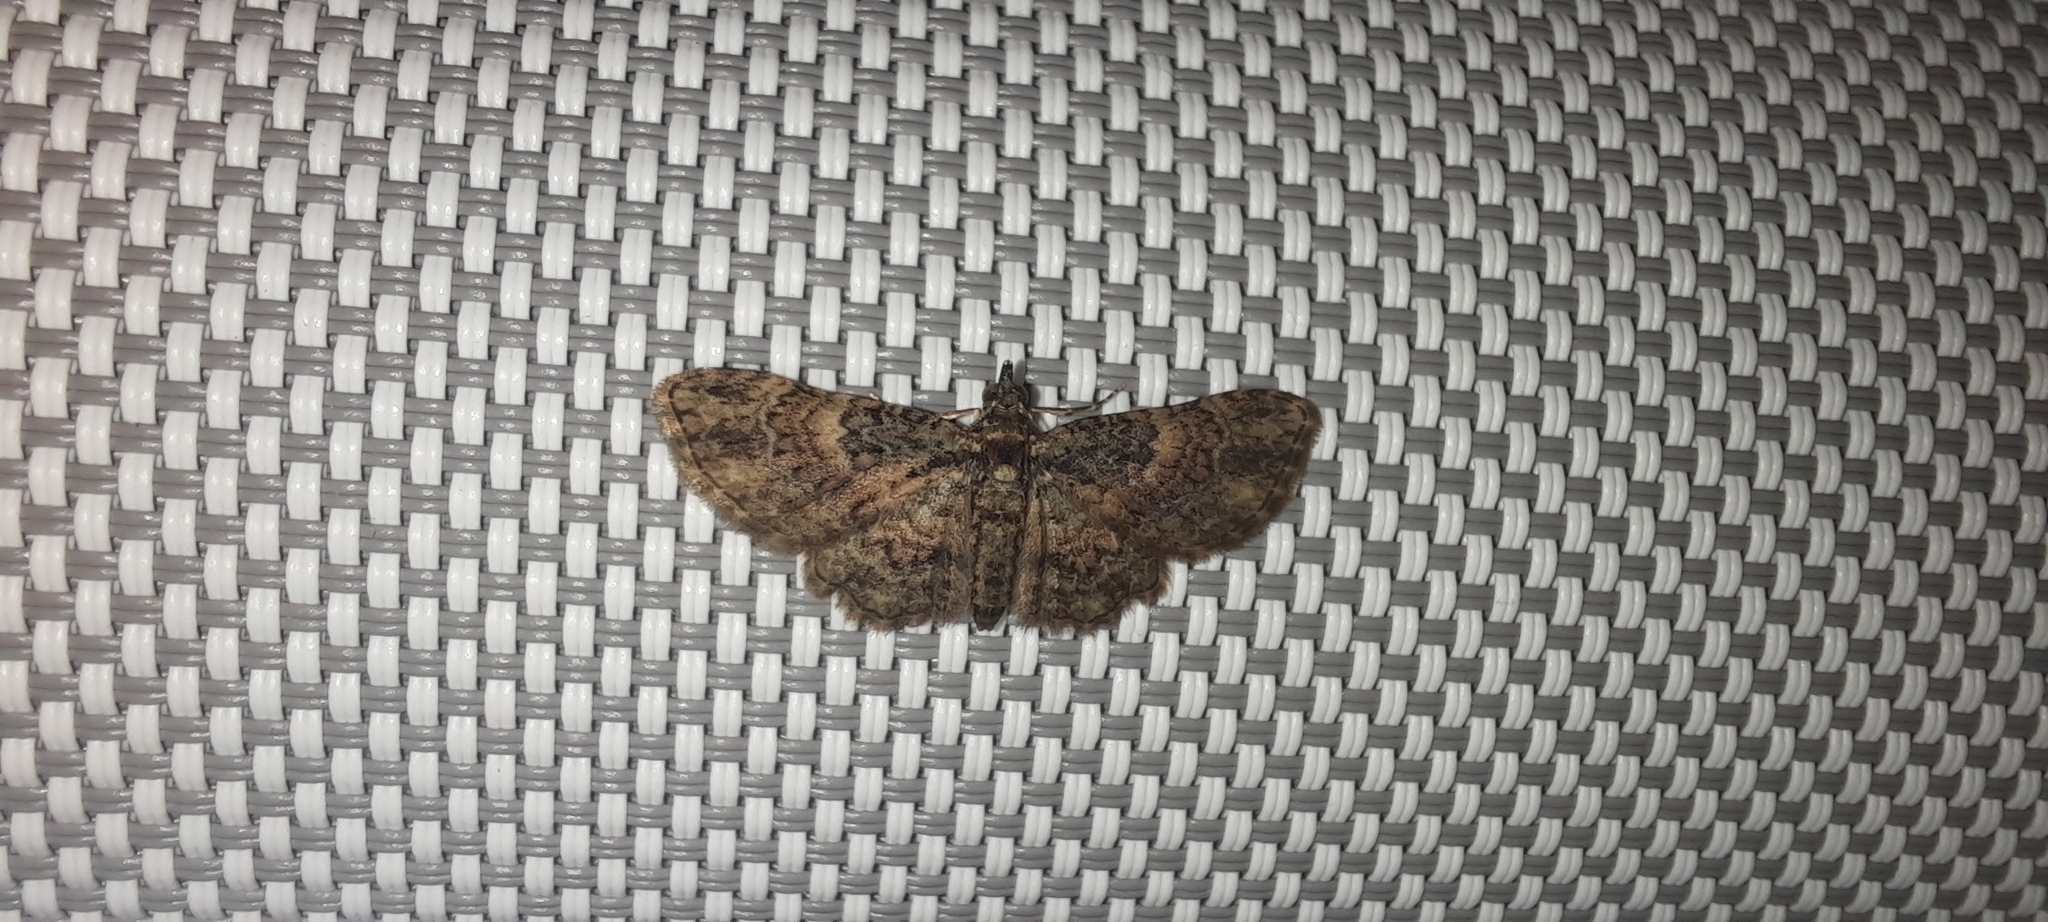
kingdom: Animalia
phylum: Arthropoda
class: Insecta
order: Lepidoptera
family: Geometridae
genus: Chloroclystis
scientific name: Chloroclystis catastreptes
